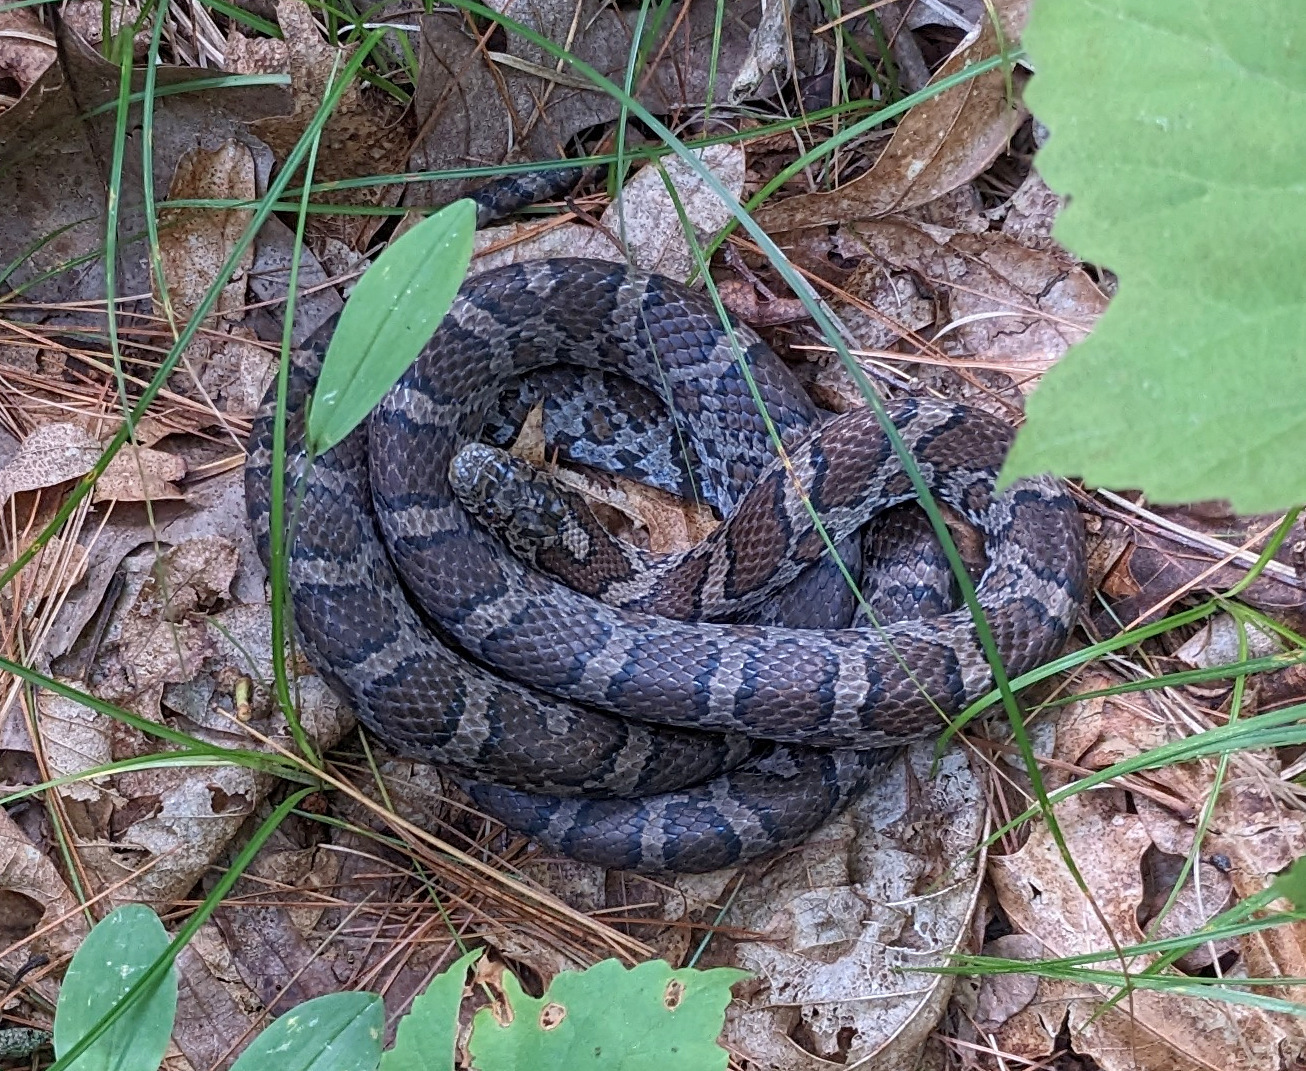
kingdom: Animalia
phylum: Chordata
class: Squamata
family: Colubridae
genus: Lampropeltis
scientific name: Lampropeltis triangulum
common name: Eastern milksnake
